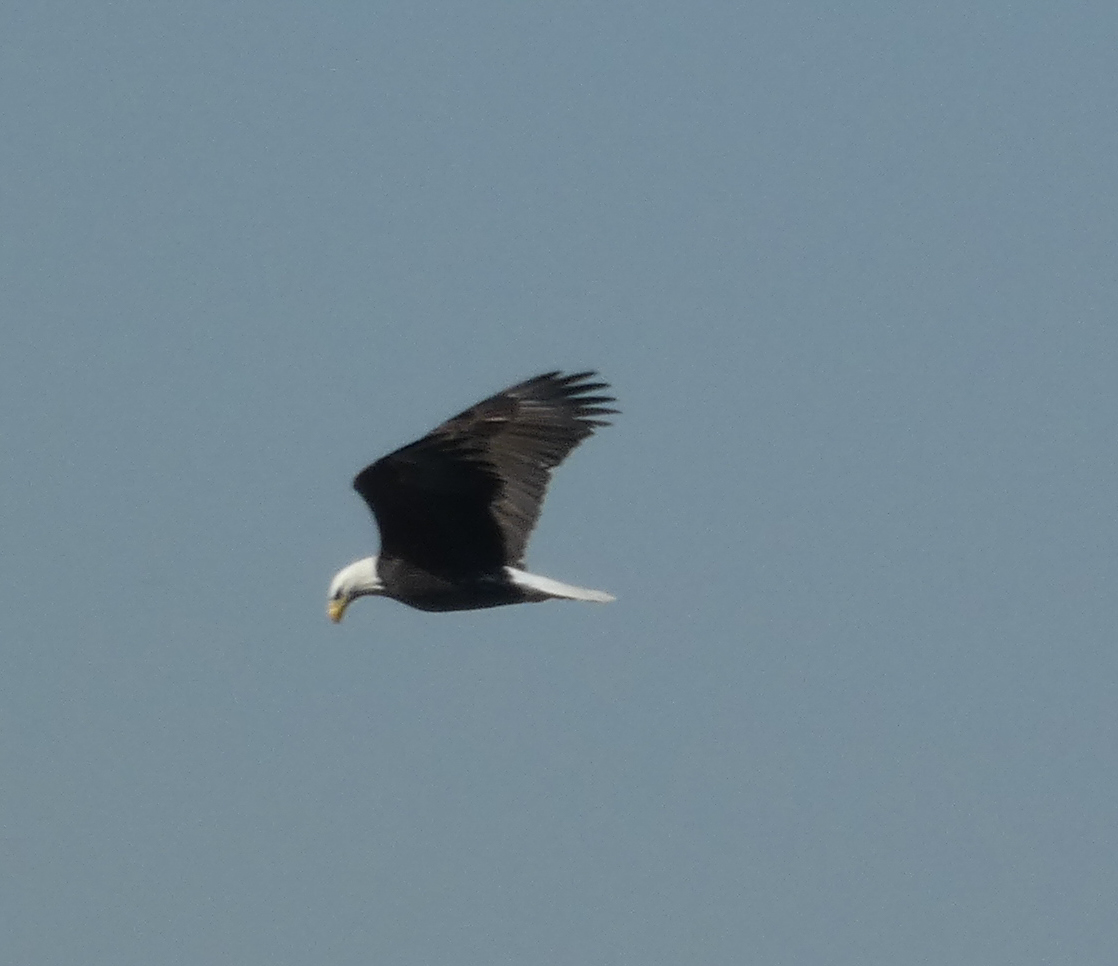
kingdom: Animalia
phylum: Chordata
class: Aves
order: Accipitriformes
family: Accipitridae
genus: Haliaeetus
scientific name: Haliaeetus leucocephalus
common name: Bald eagle
